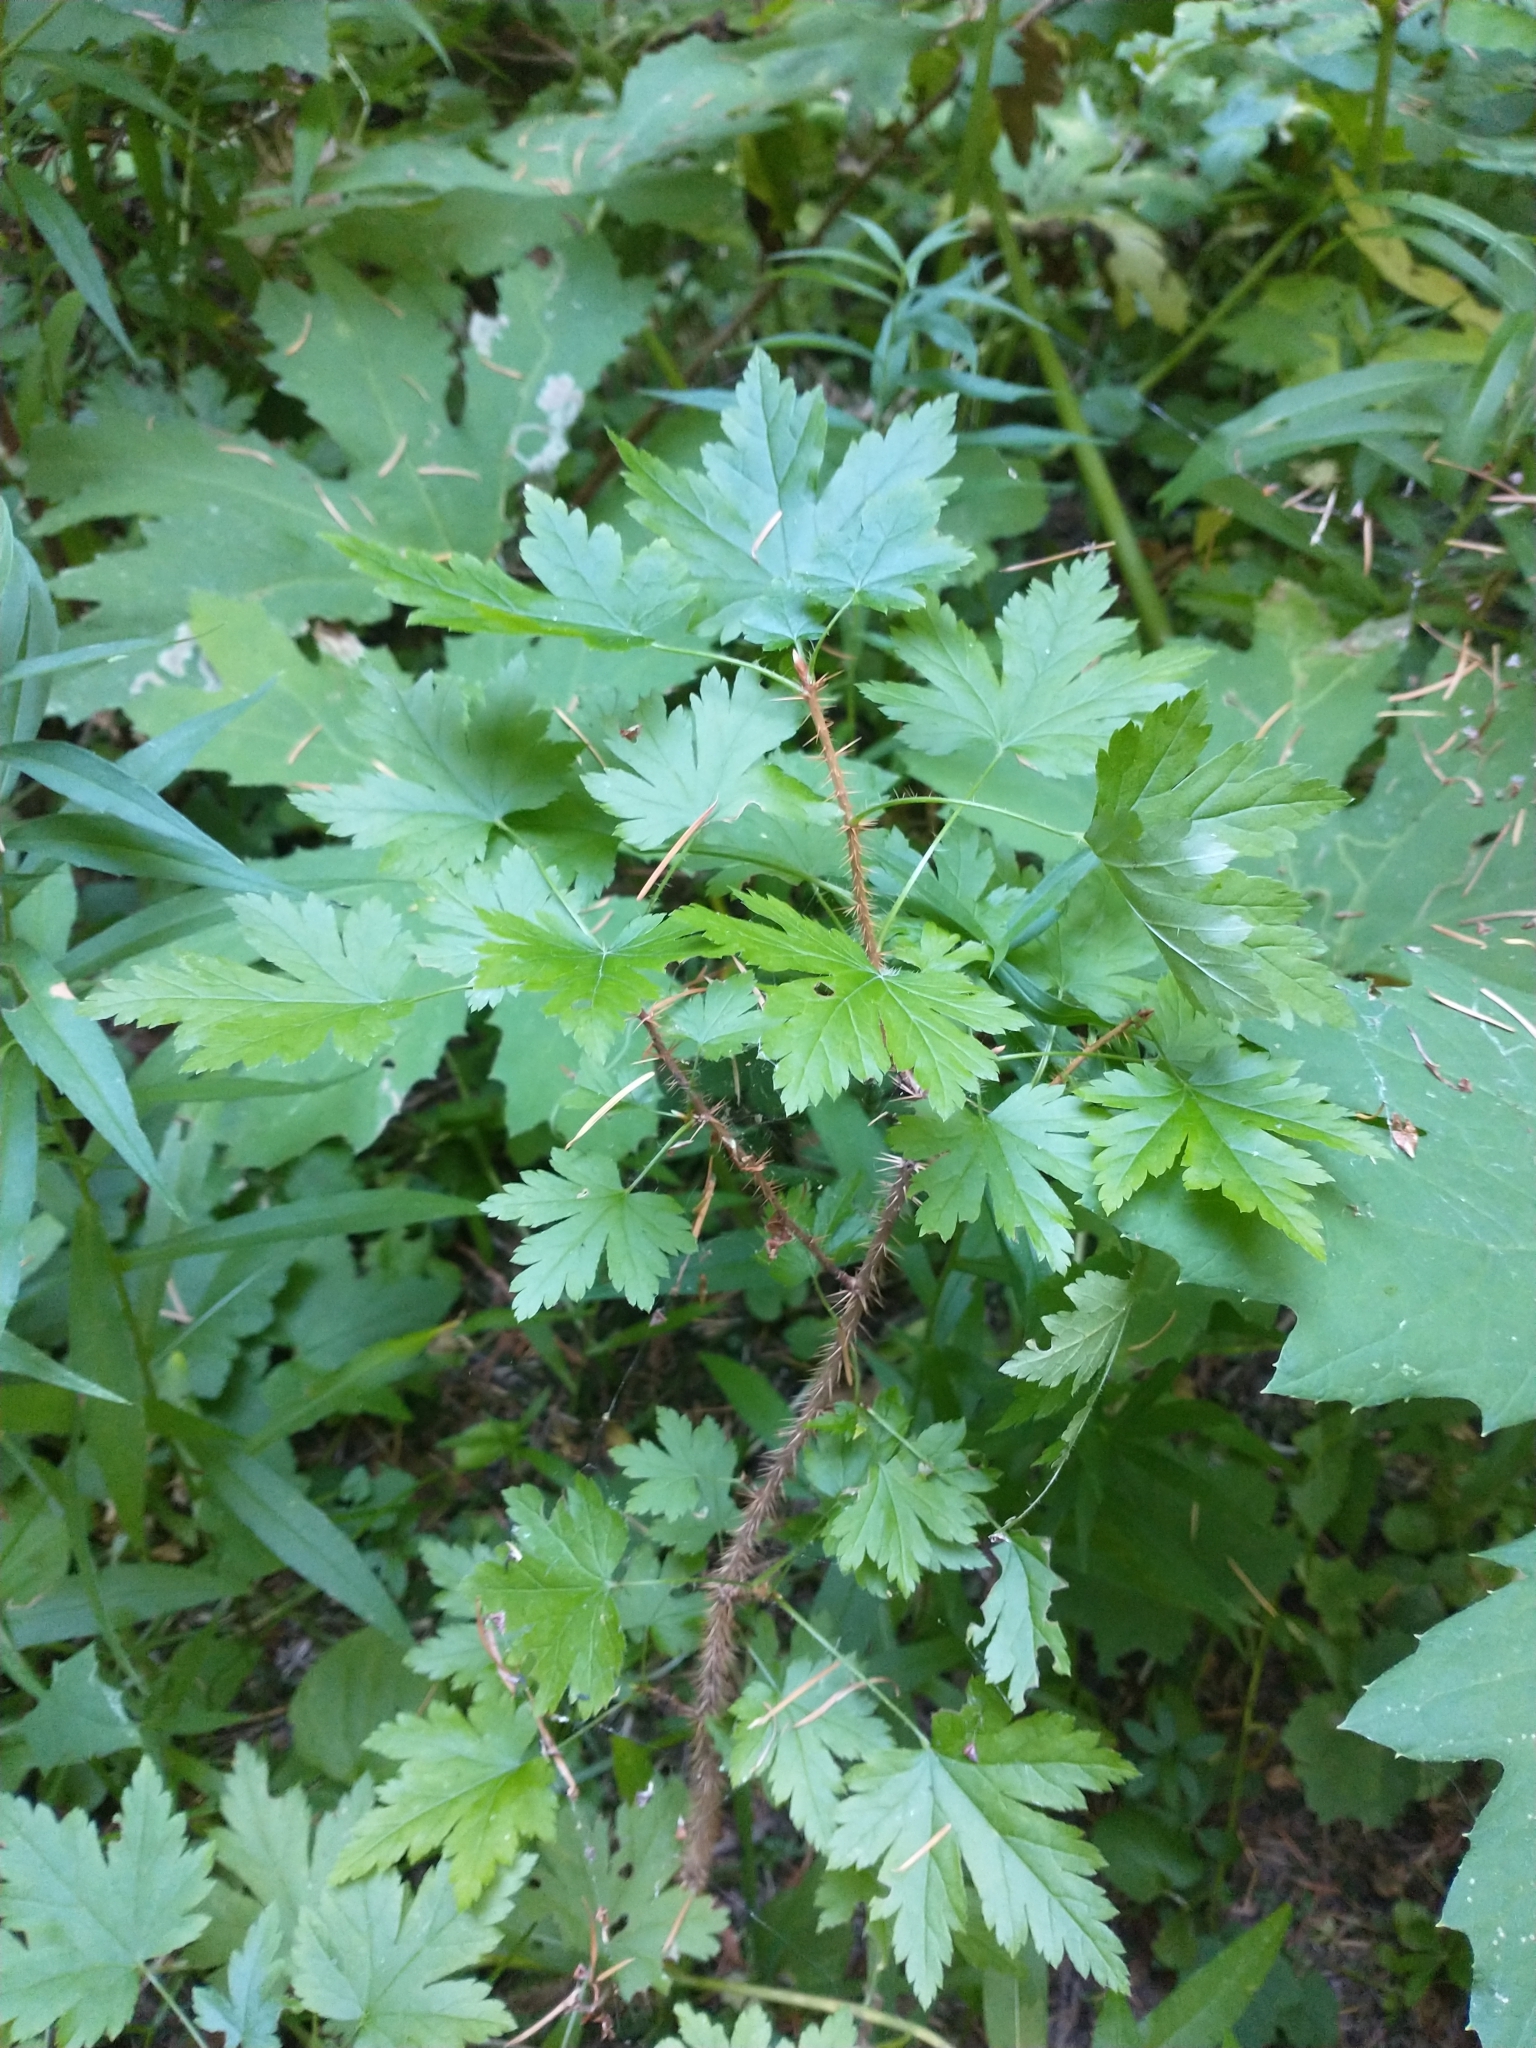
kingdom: Plantae
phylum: Tracheophyta
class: Magnoliopsida
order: Saxifragales
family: Grossulariaceae
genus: Ribes
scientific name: Ribes lacustre
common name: Black gooseberry
